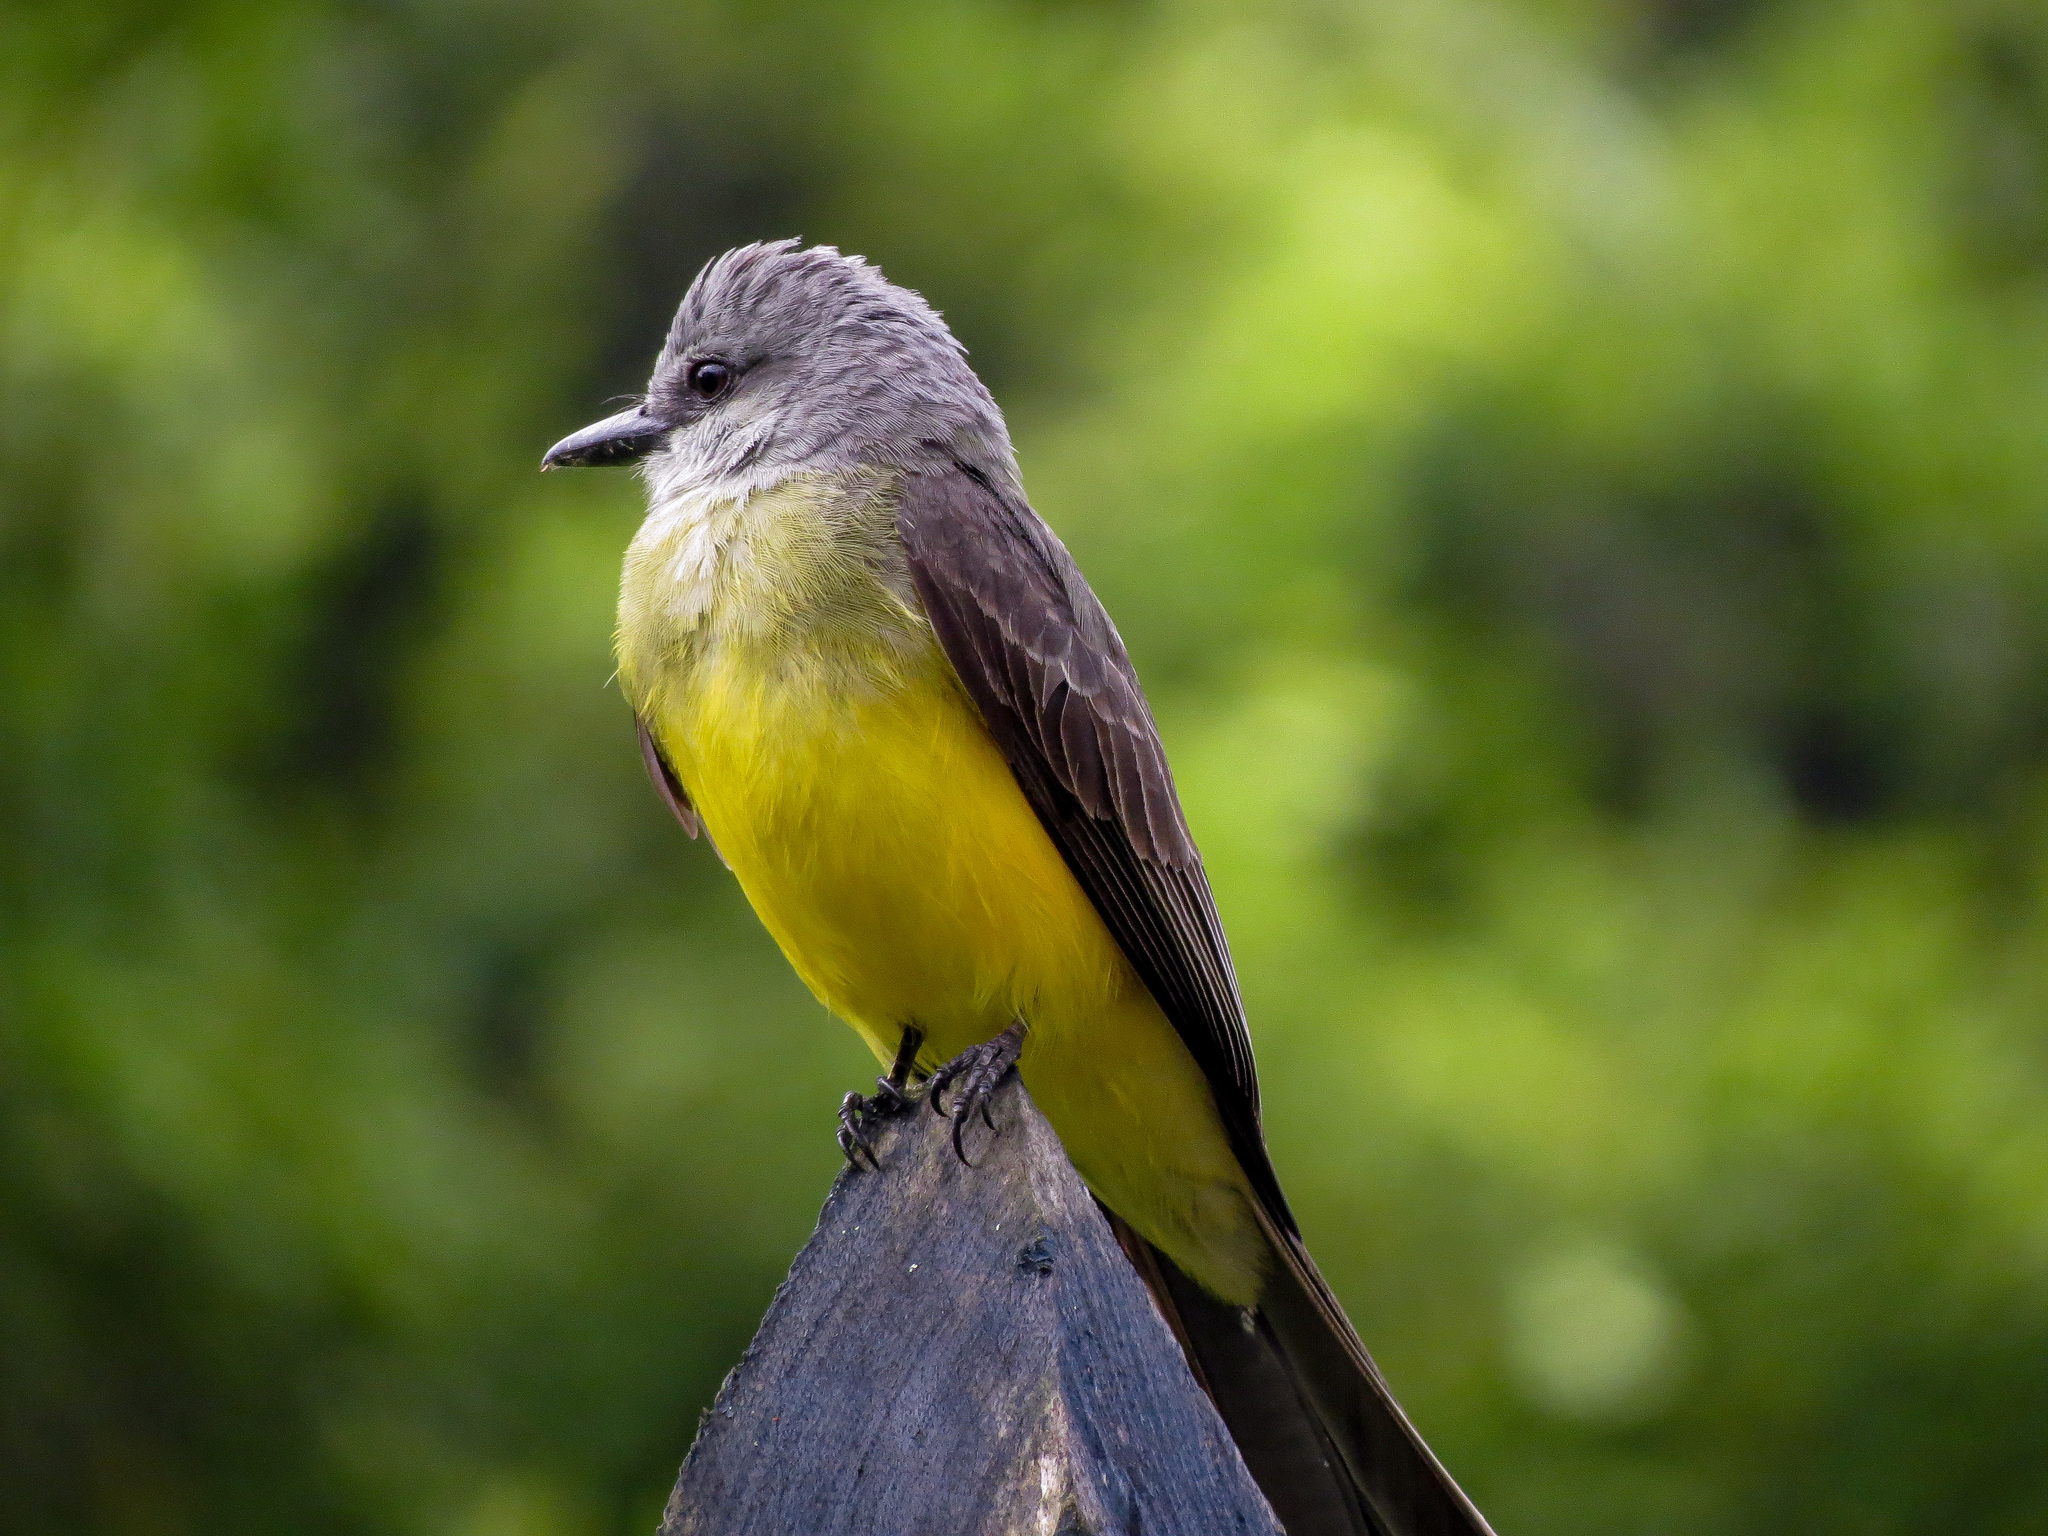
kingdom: Animalia
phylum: Chordata
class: Aves
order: Passeriformes
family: Tyrannidae
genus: Tyrannus
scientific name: Tyrannus melancholicus
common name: Tropical kingbird
